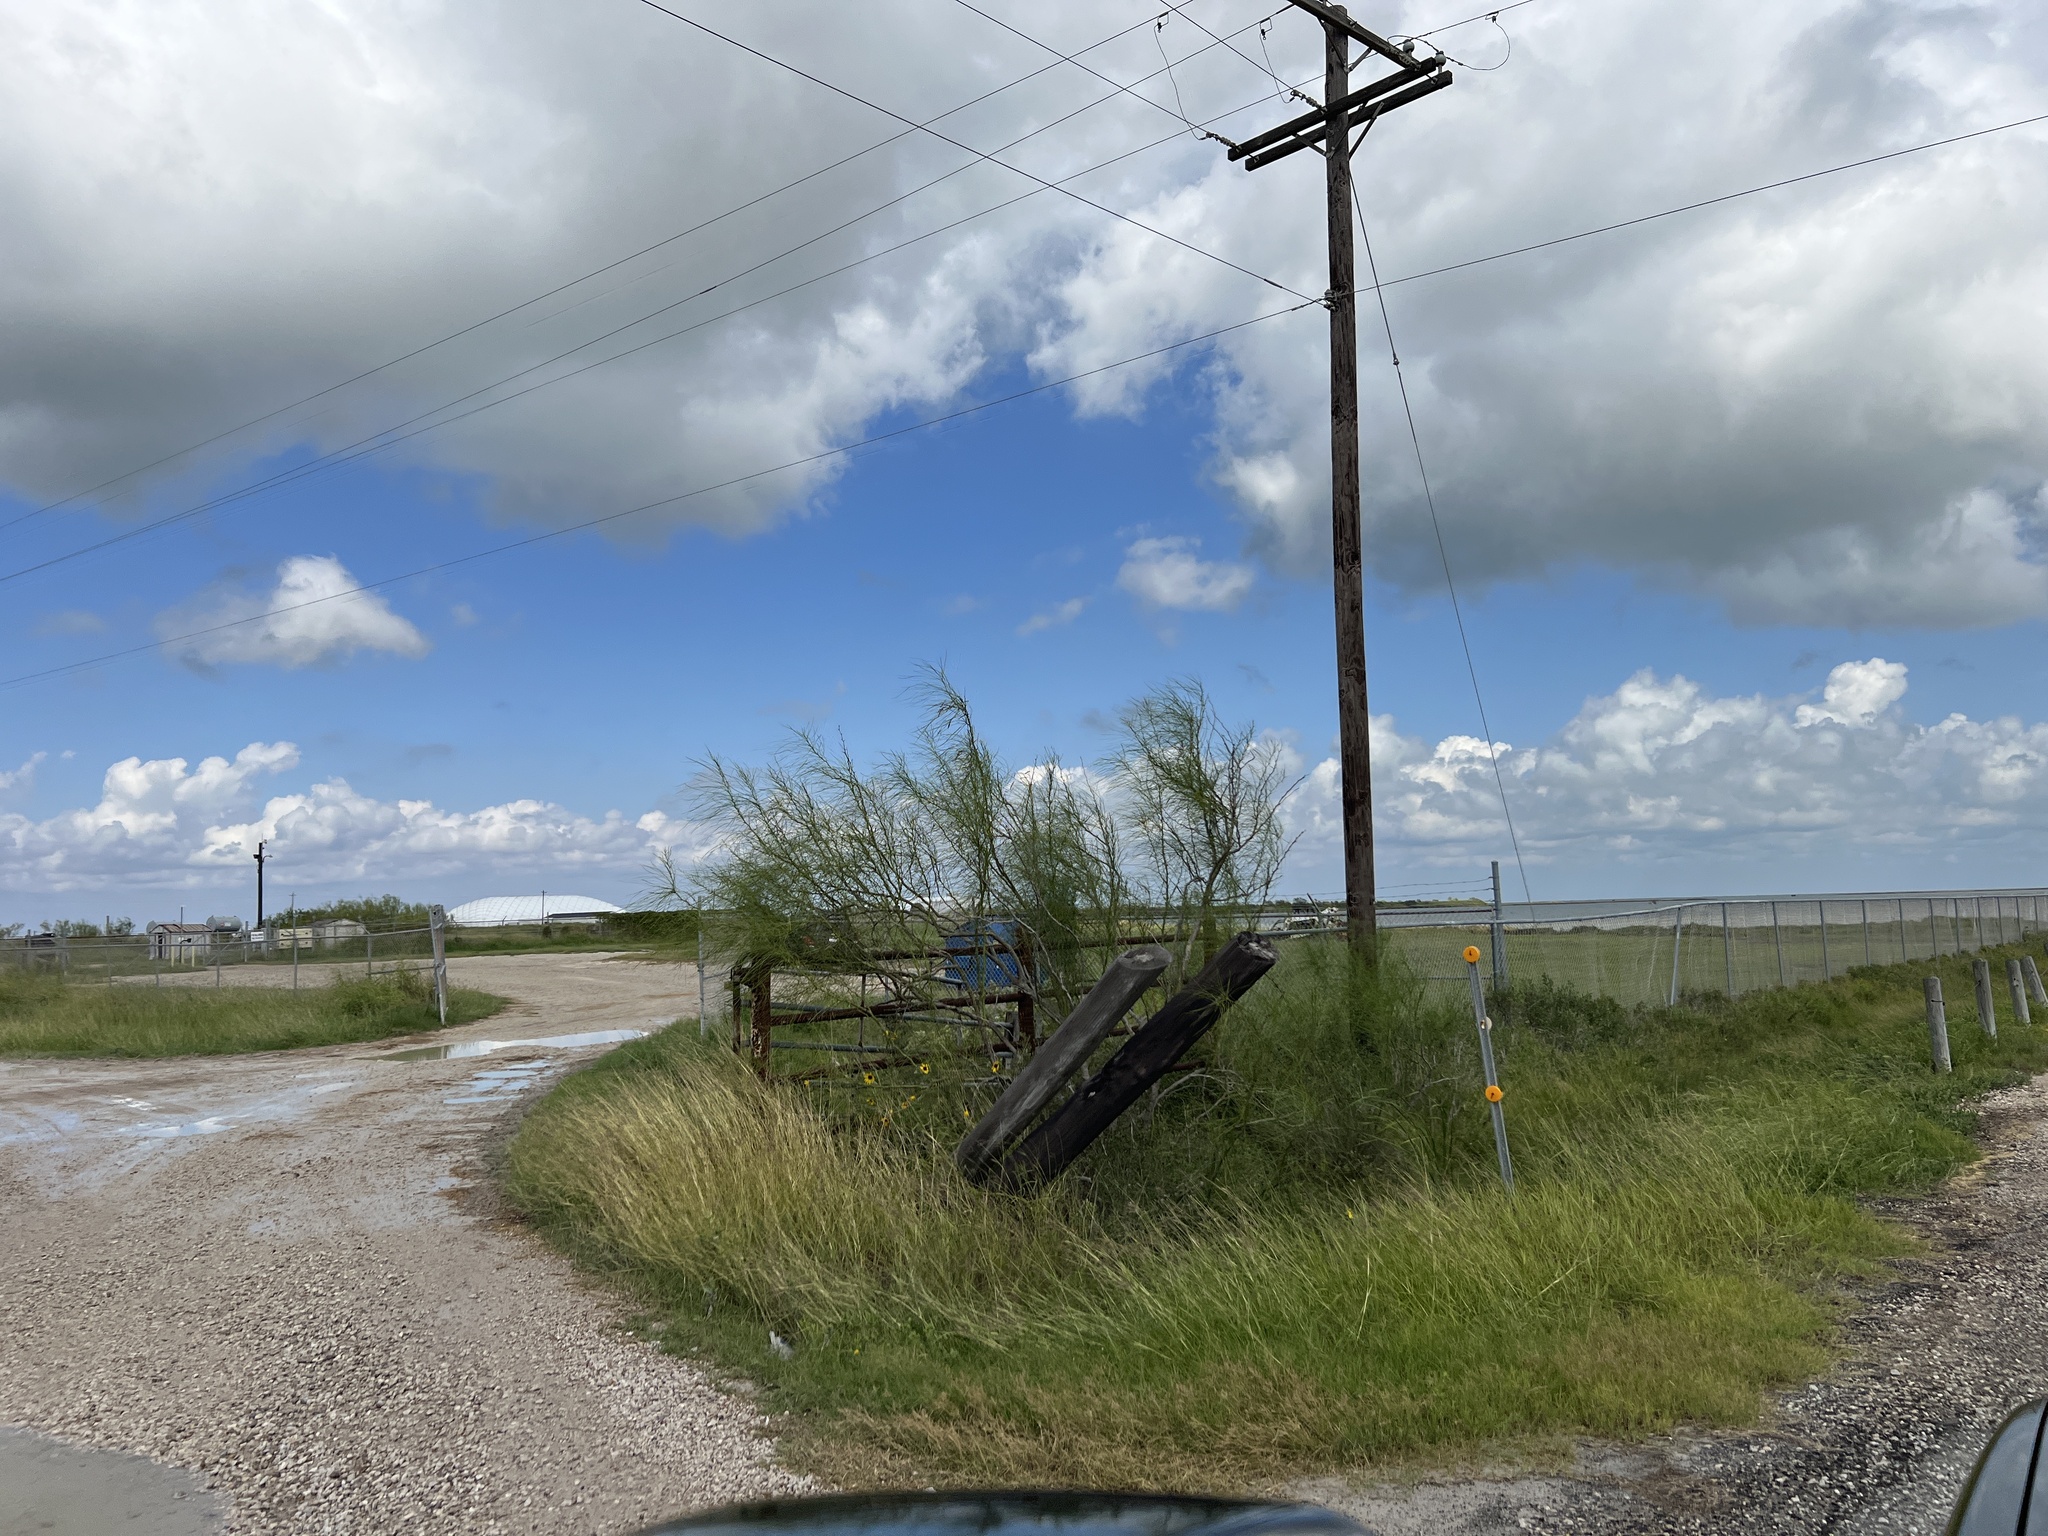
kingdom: Plantae
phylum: Tracheophyta
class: Magnoliopsida
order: Fabales
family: Fabaceae
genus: Parkinsonia
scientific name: Parkinsonia aculeata
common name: Jerusalem thorn
